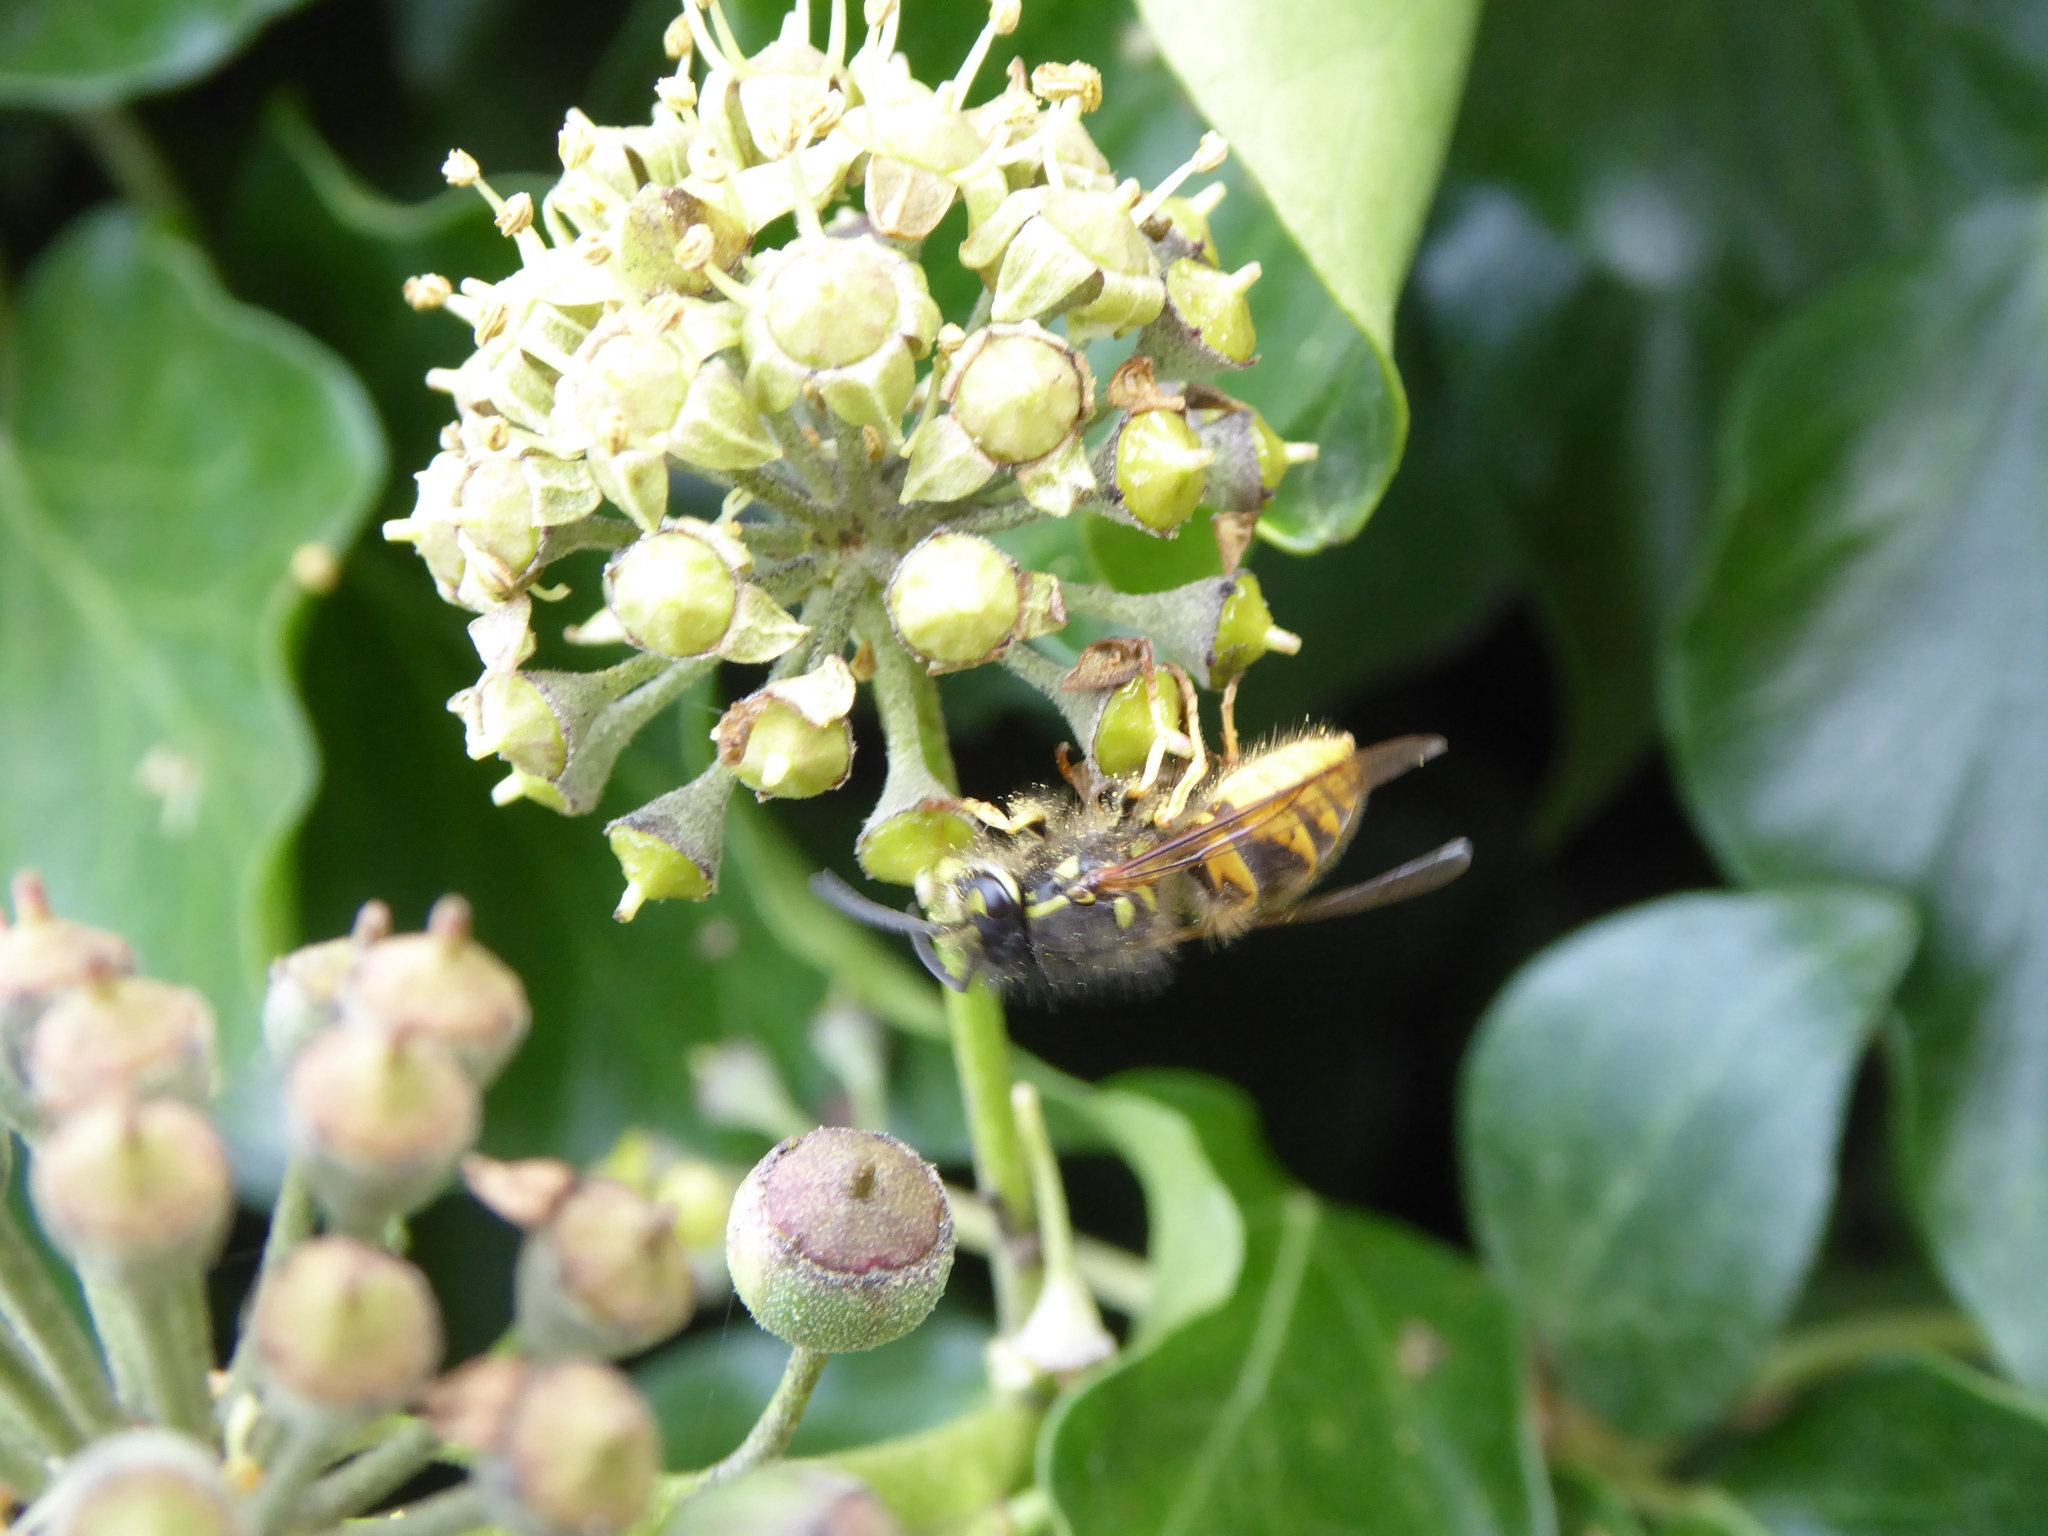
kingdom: Animalia
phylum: Arthropoda
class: Insecta
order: Hymenoptera
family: Vespidae
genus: Vespula
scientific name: Vespula vulgaris
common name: Common wasp
